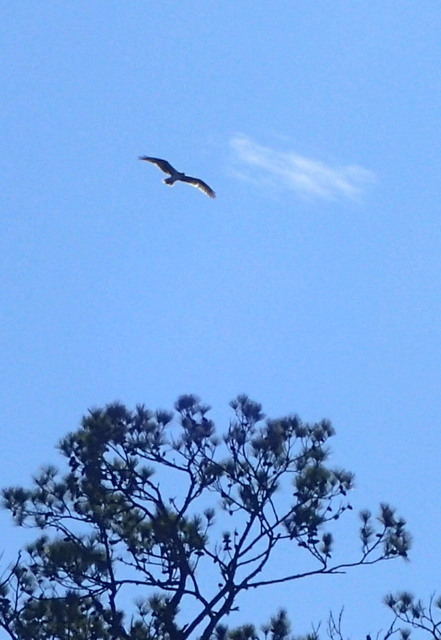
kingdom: Animalia
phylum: Chordata
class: Aves
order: Accipitriformes
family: Pandionidae
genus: Pandion
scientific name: Pandion haliaetus
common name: Osprey
